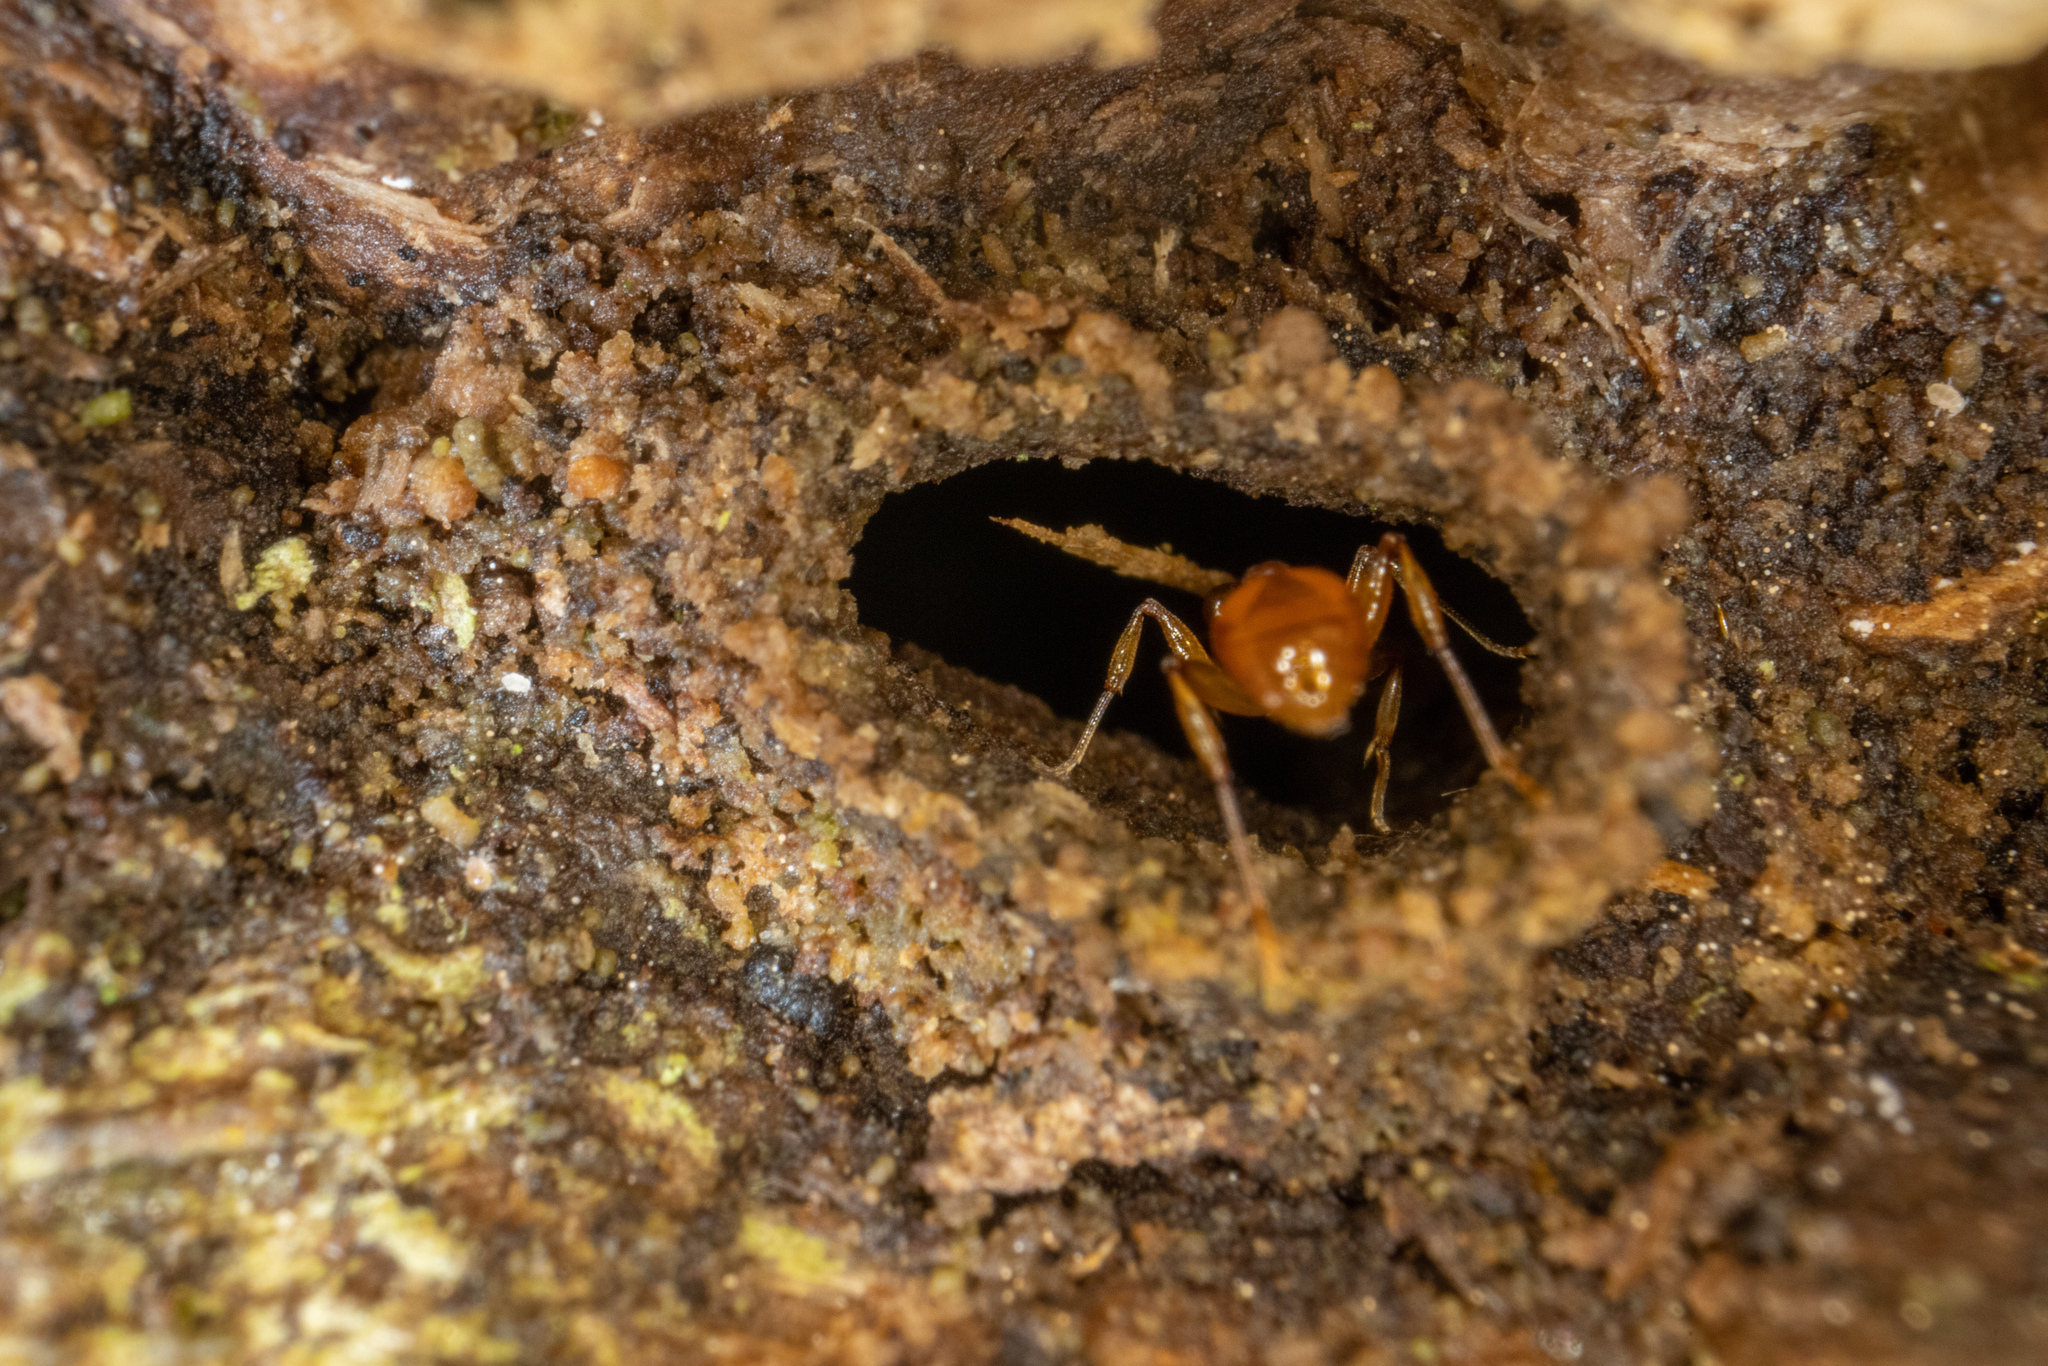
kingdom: Animalia
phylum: Arthropoda
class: Insecta
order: Hymenoptera
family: Formicidae
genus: Orectognathus
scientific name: Orectognathus antennatus
